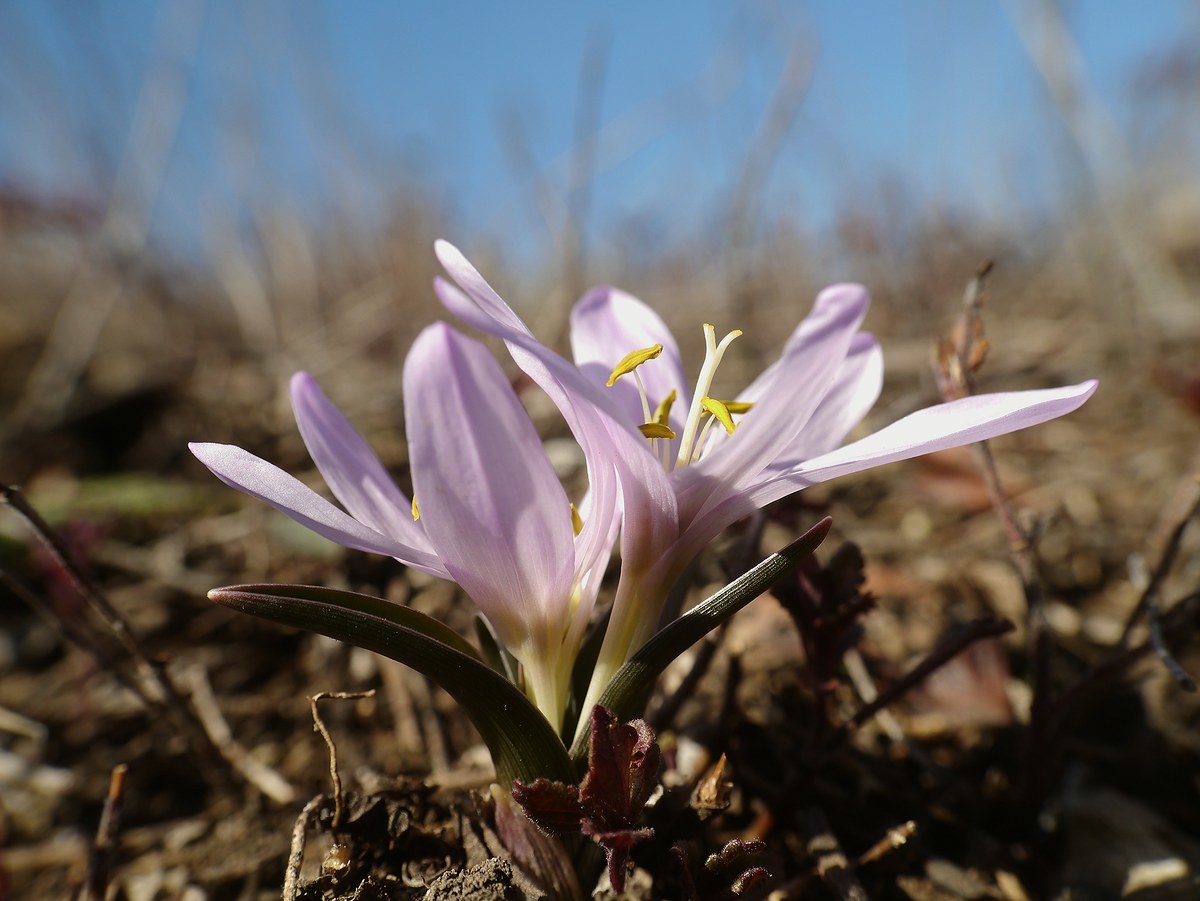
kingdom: Plantae
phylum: Tracheophyta
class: Liliopsida
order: Liliales
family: Colchicaceae
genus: Colchicum
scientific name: Colchicum bulbocodium
